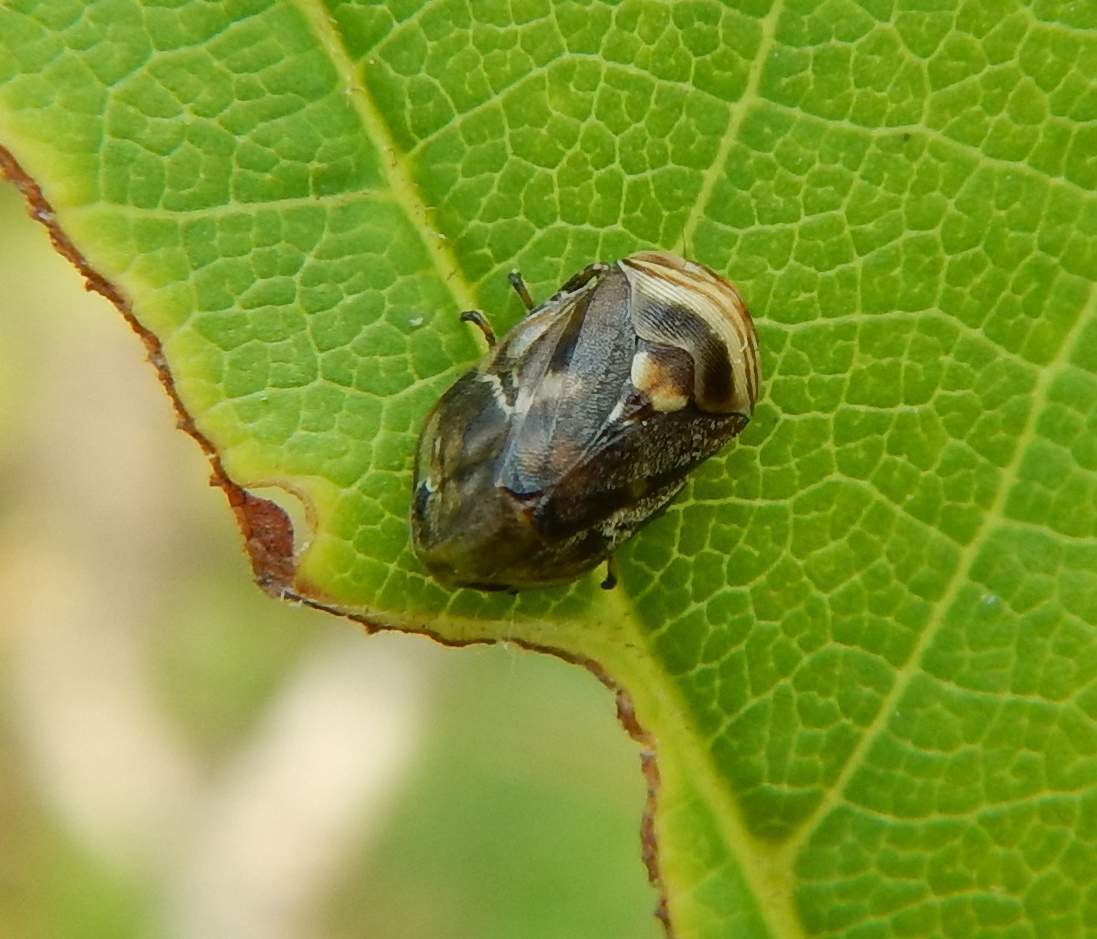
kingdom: Animalia
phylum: Arthropoda
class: Insecta
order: Hemiptera
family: Clastopteridae
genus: Clastoptera
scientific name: Clastoptera obtusa
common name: Alder spittlebug
